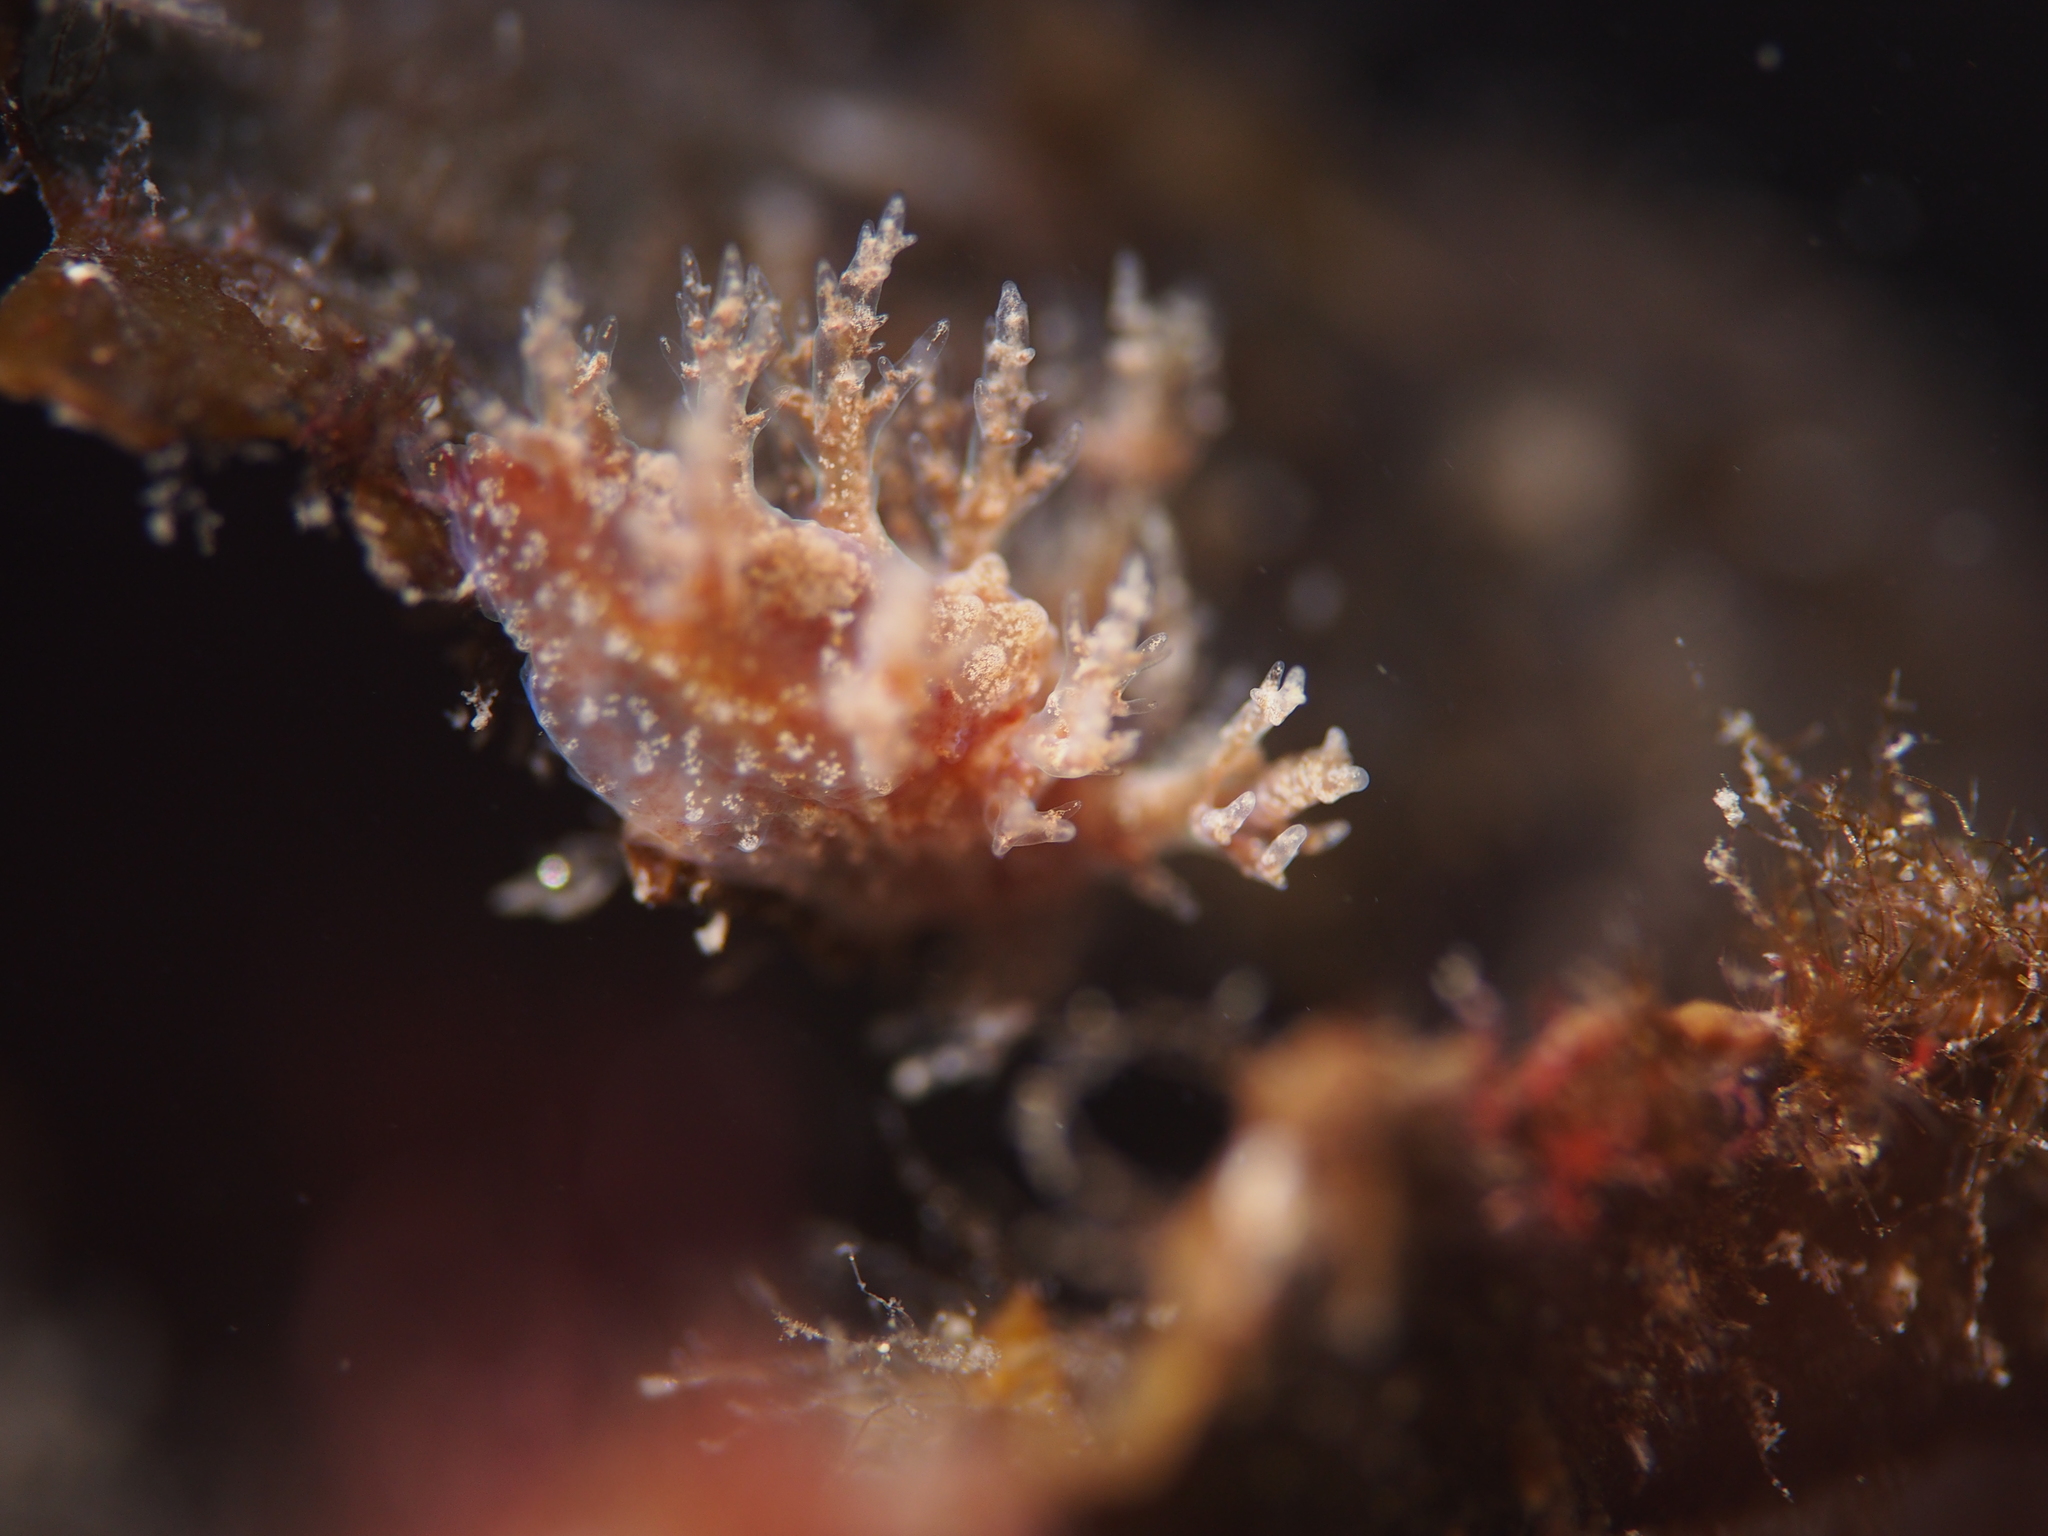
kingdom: Animalia
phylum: Mollusca
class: Gastropoda
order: Nudibranchia
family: Dendronotidae
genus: Dendronotus
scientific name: Dendronotus frondosus
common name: Bushy-backed nudibranch
